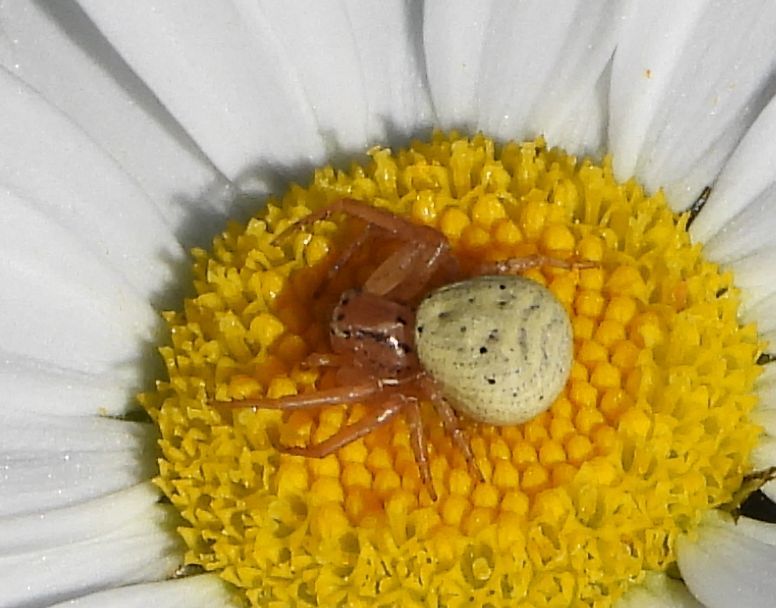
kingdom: Animalia
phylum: Arthropoda
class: Arachnida
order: Araneae
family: Thomisidae
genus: Xysticus
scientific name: Xysticus triguttatus
